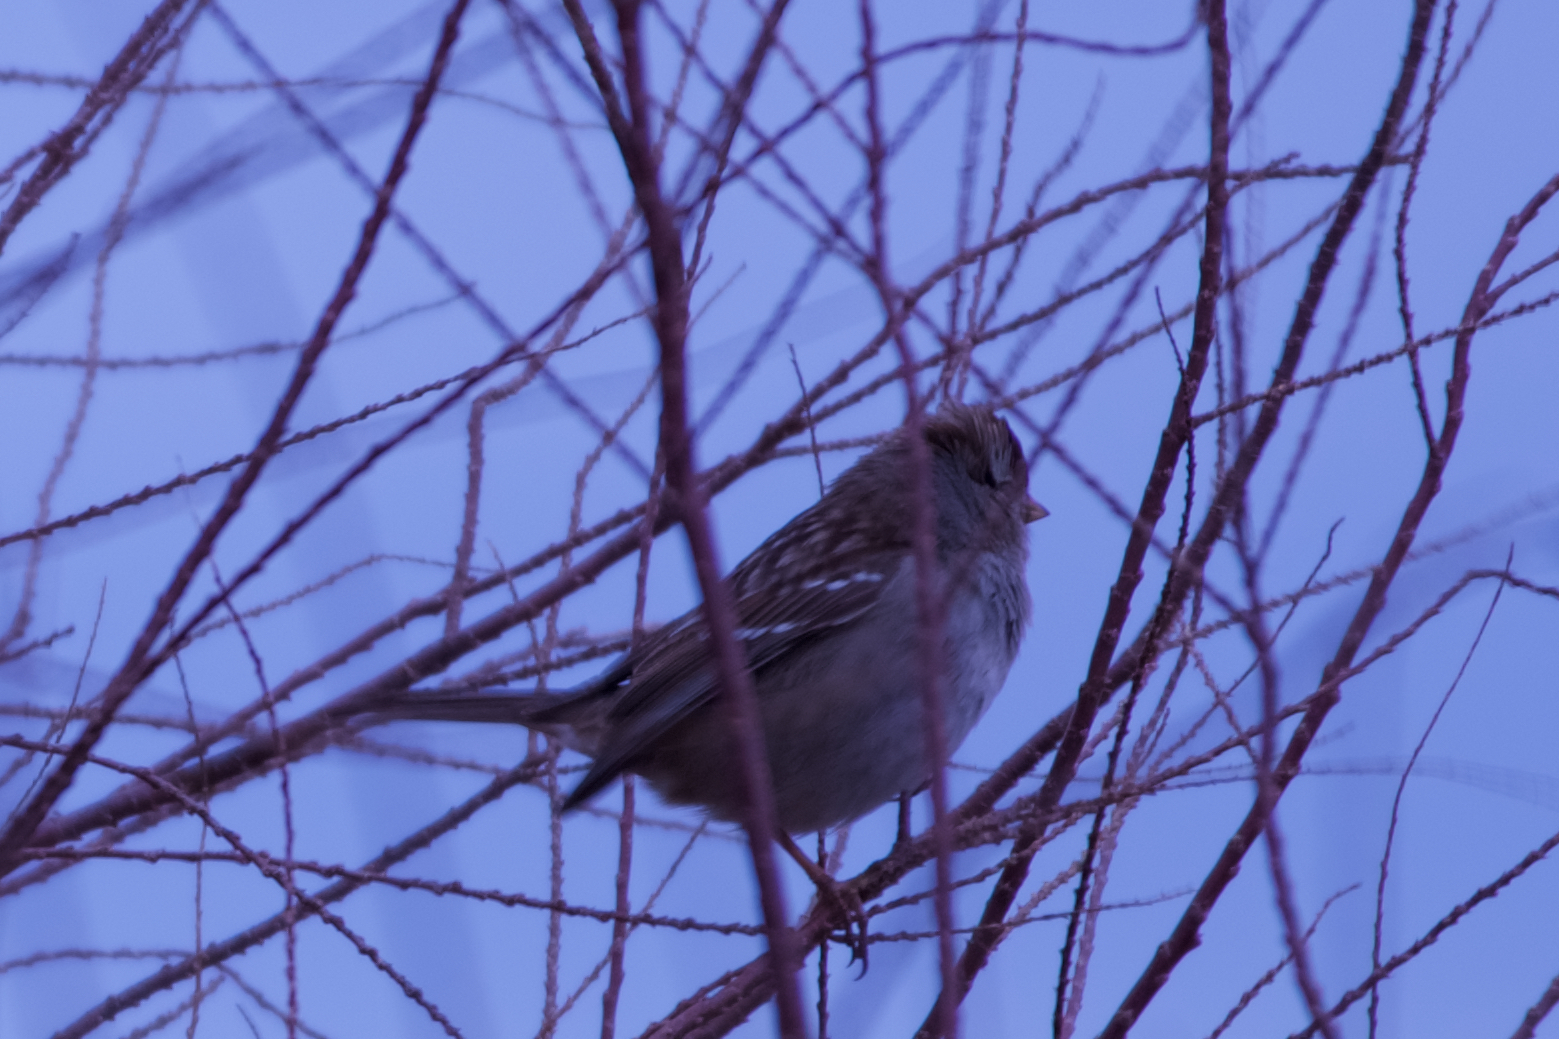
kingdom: Animalia
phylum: Chordata
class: Aves
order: Passeriformes
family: Passerellidae
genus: Zonotrichia
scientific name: Zonotrichia leucophrys
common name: White-crowned sparrow
